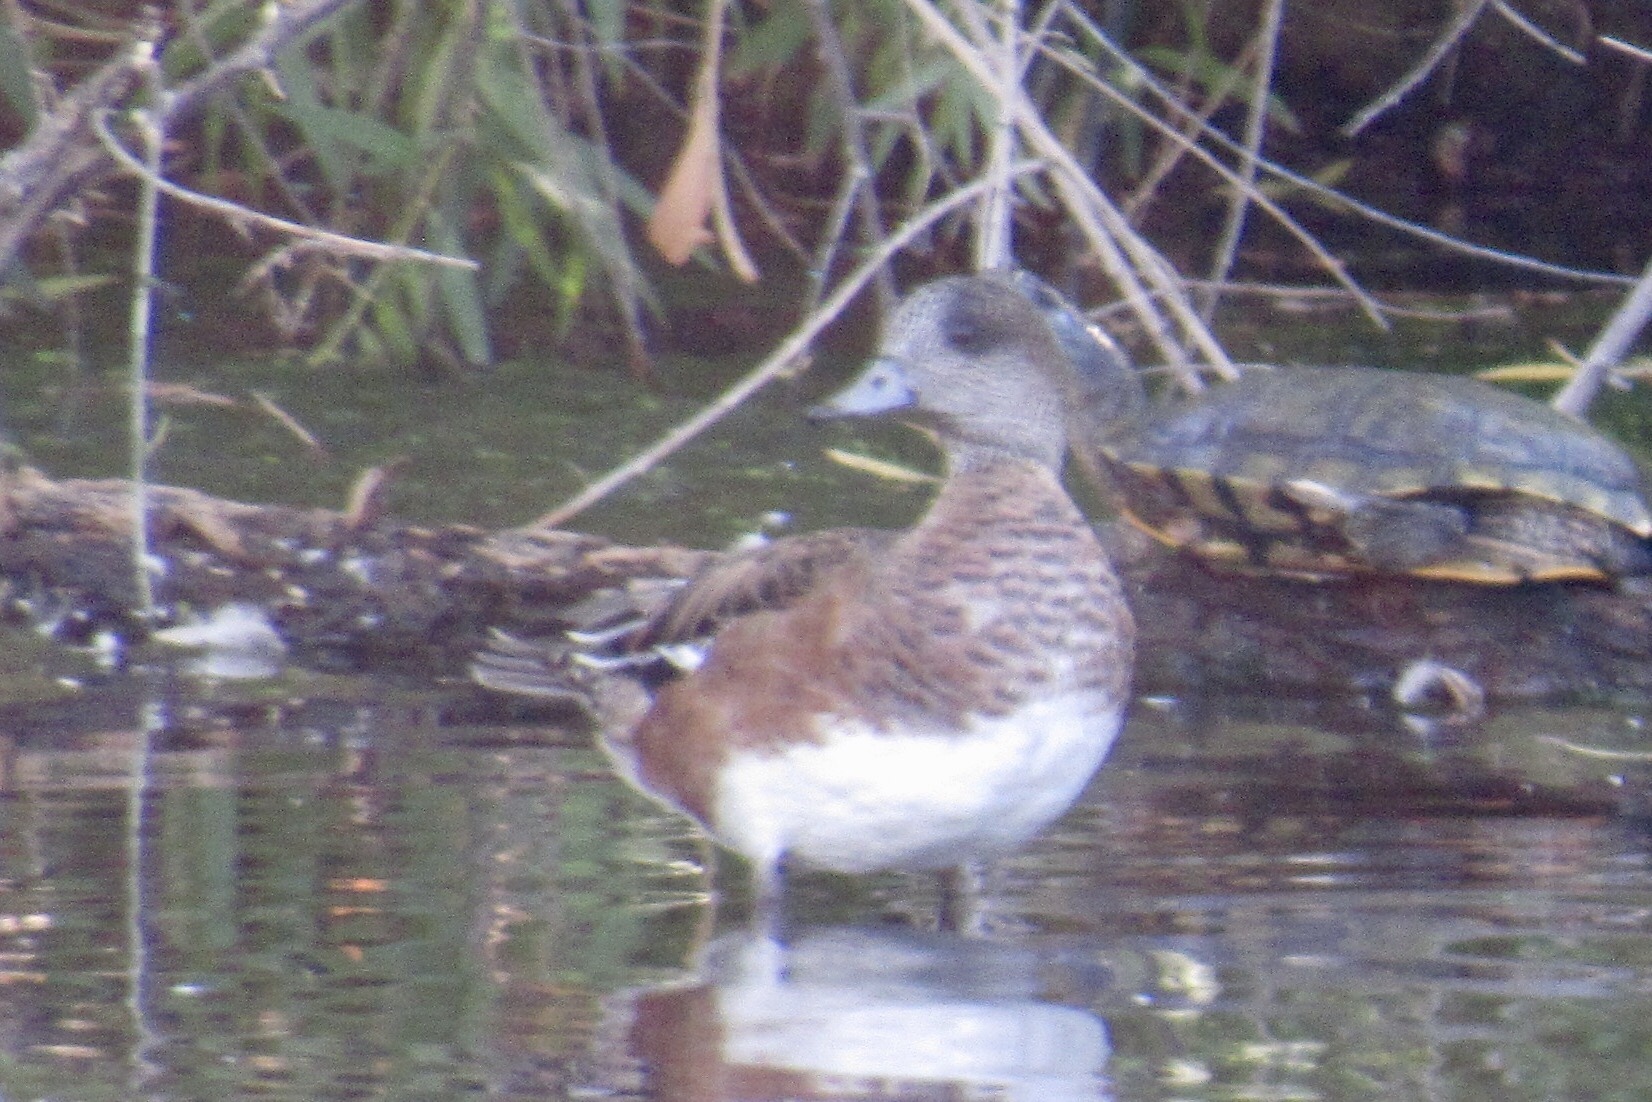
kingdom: Animalia
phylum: Chordata
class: Aves
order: Anseriformes
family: Anatidae
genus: Mareca
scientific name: Mareca americana
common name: American wigeon
